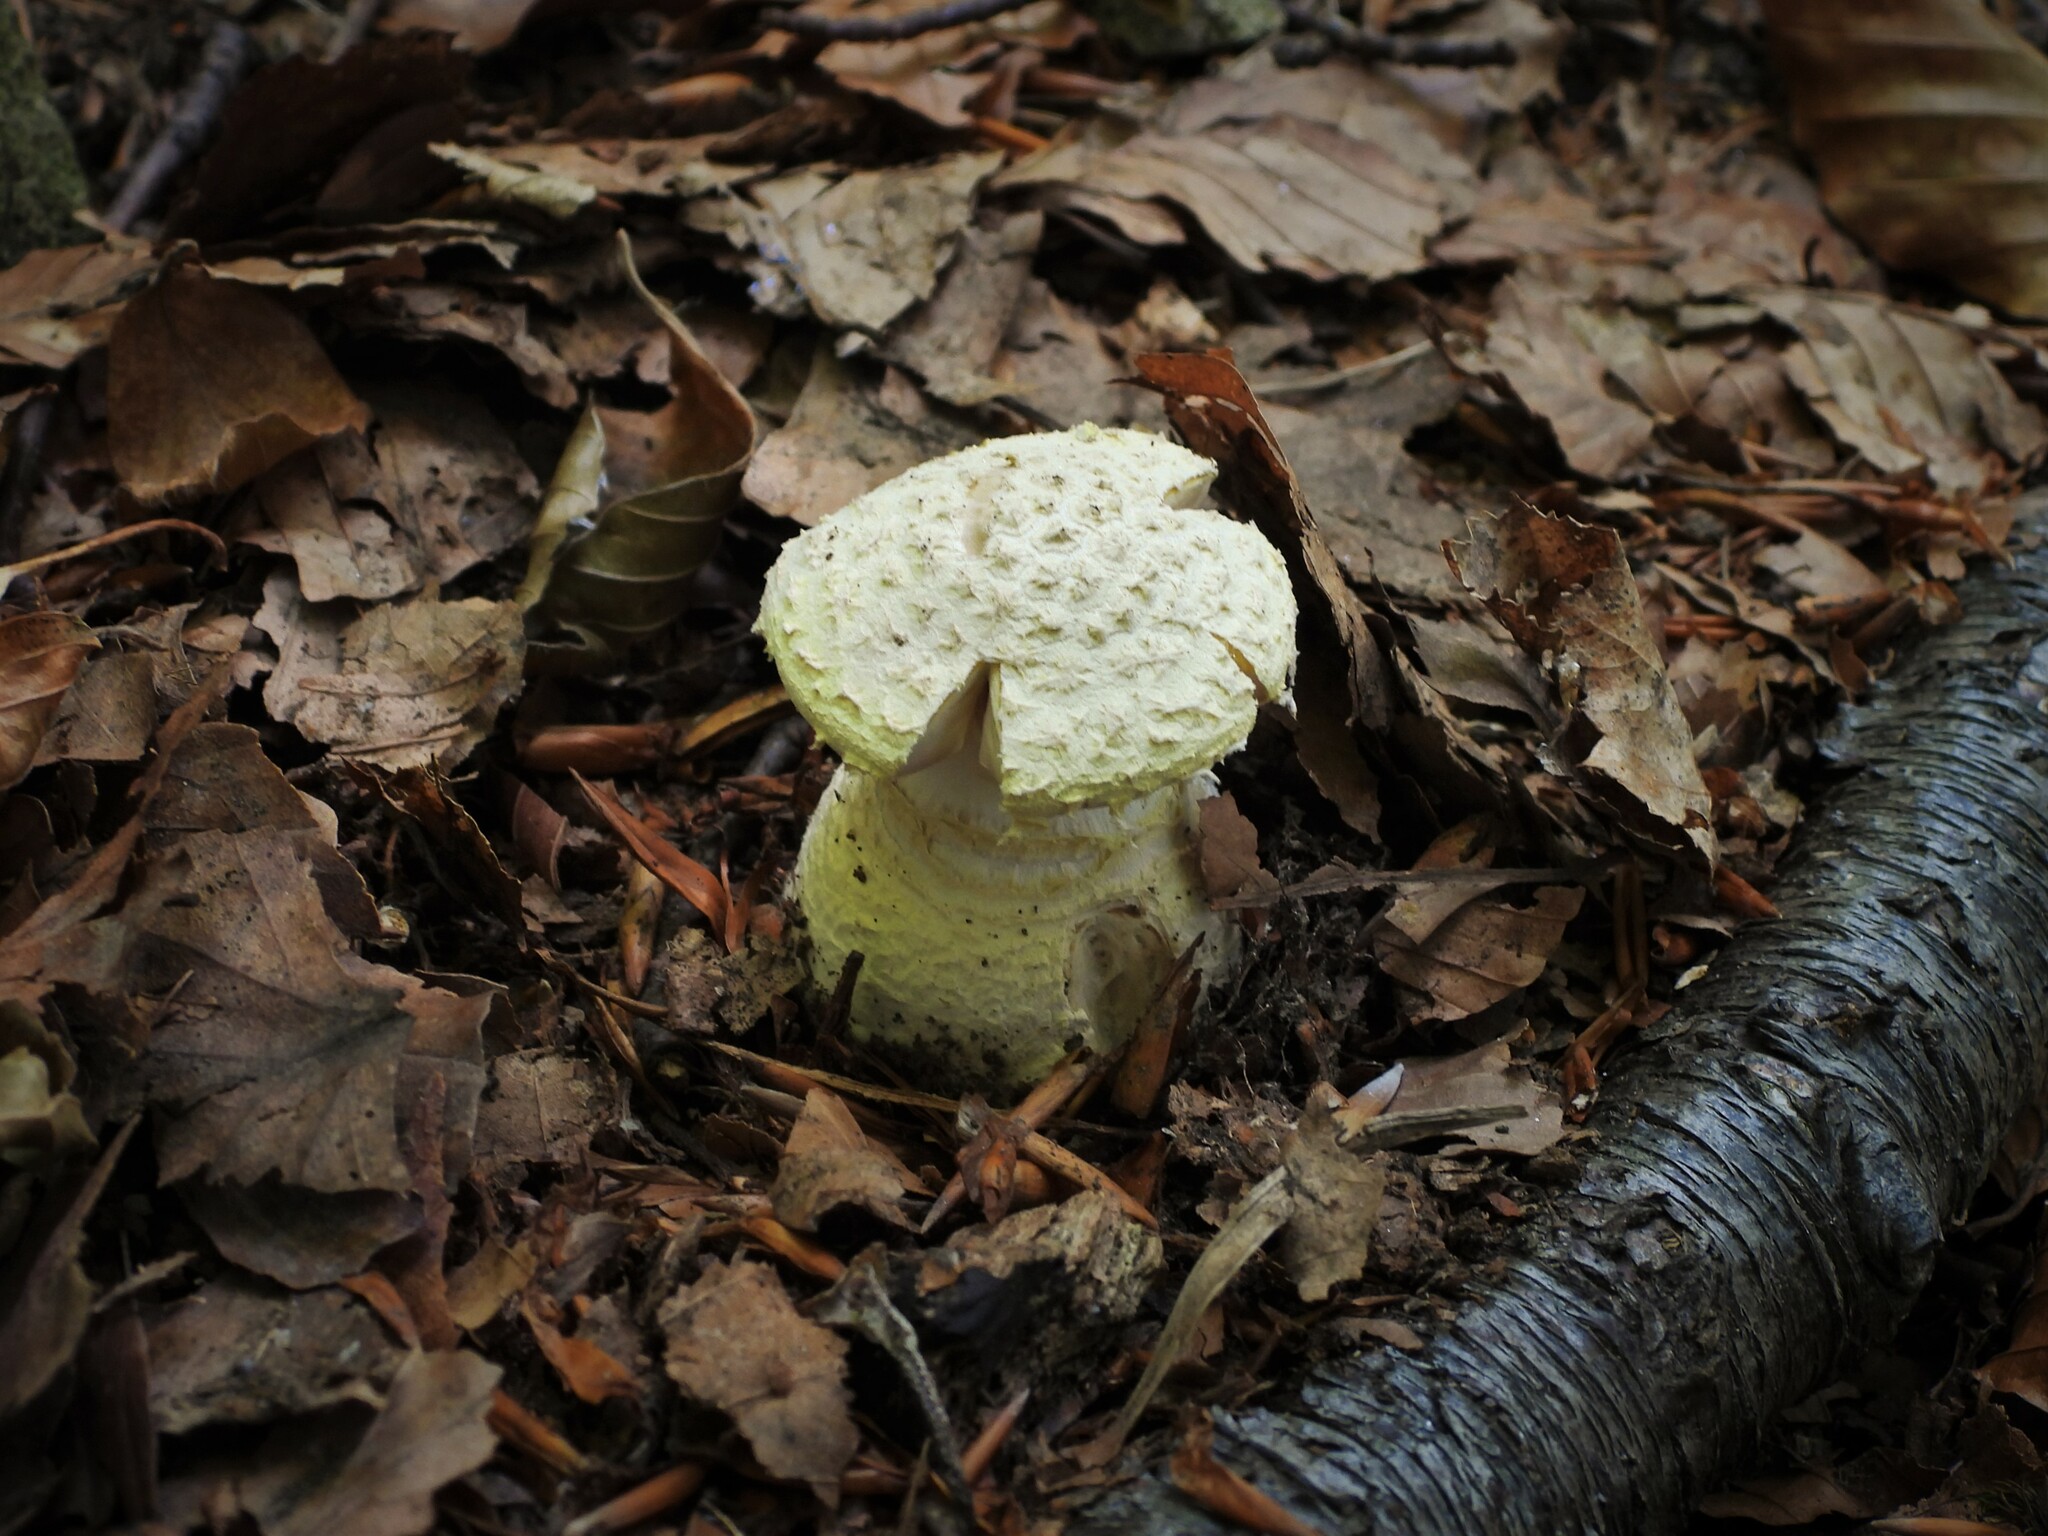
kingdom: Fungi
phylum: Basidiomycota
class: Agaricomycetes
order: Agaricales
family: Amanitaceae
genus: Amanita
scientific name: Amanita muscaria
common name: Fly agaric
